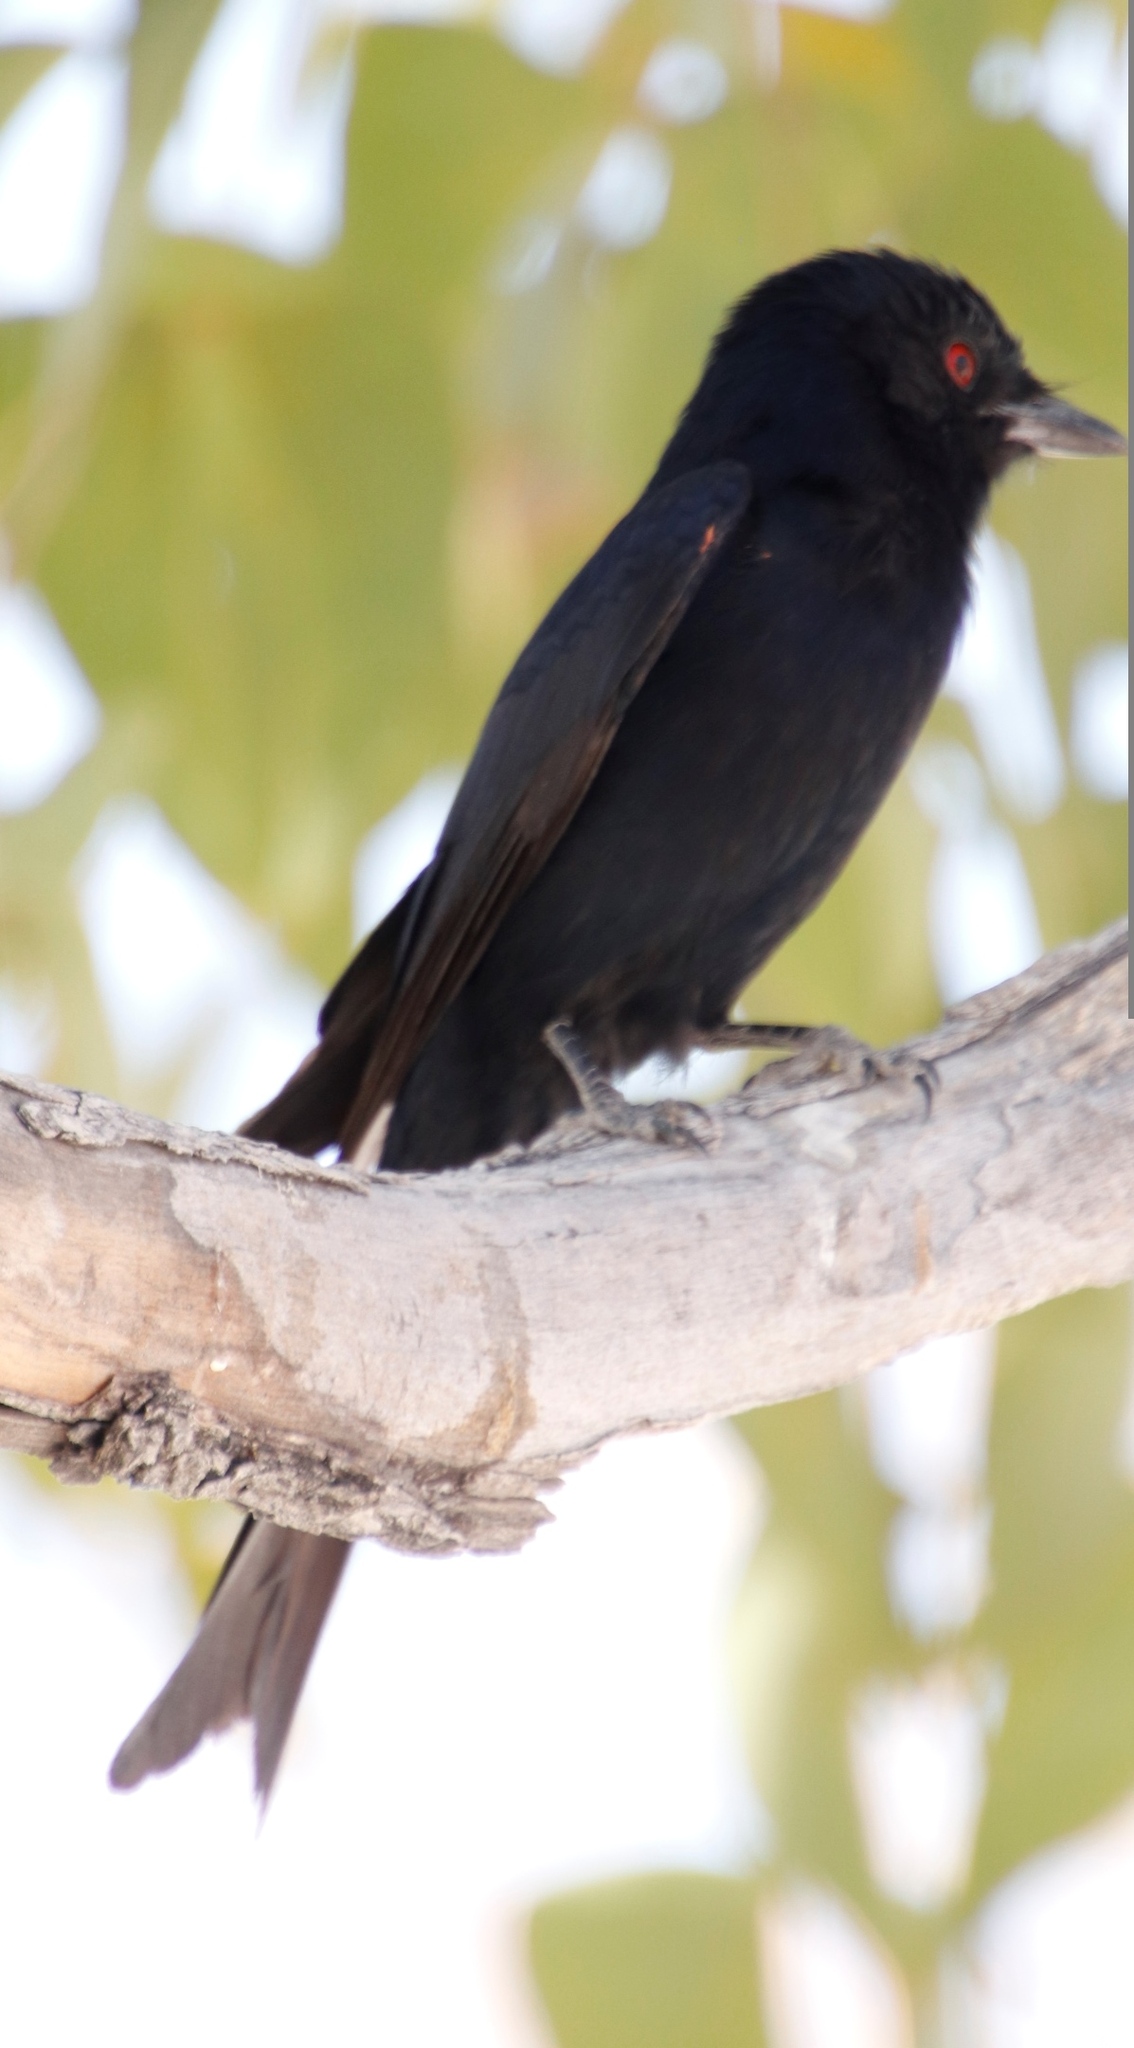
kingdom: Animalia
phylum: Chordata
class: Aves
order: Passeriformes
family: Dicruridae
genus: Dicrurus
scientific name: Dicrurus adsimilis
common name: Fork-tailed drongo
